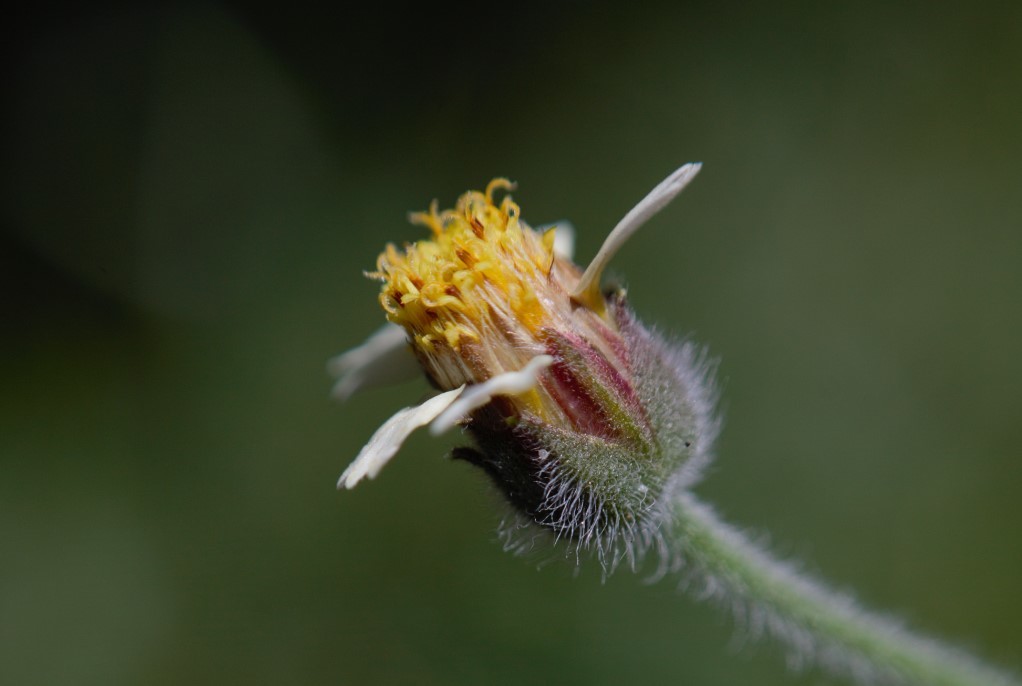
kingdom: Plantae
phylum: Tracheophyta
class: Magnoliopsida
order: Asterales
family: Asteraceae
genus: Tridax
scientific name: Tridax procumbens
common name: Coatbuttons
